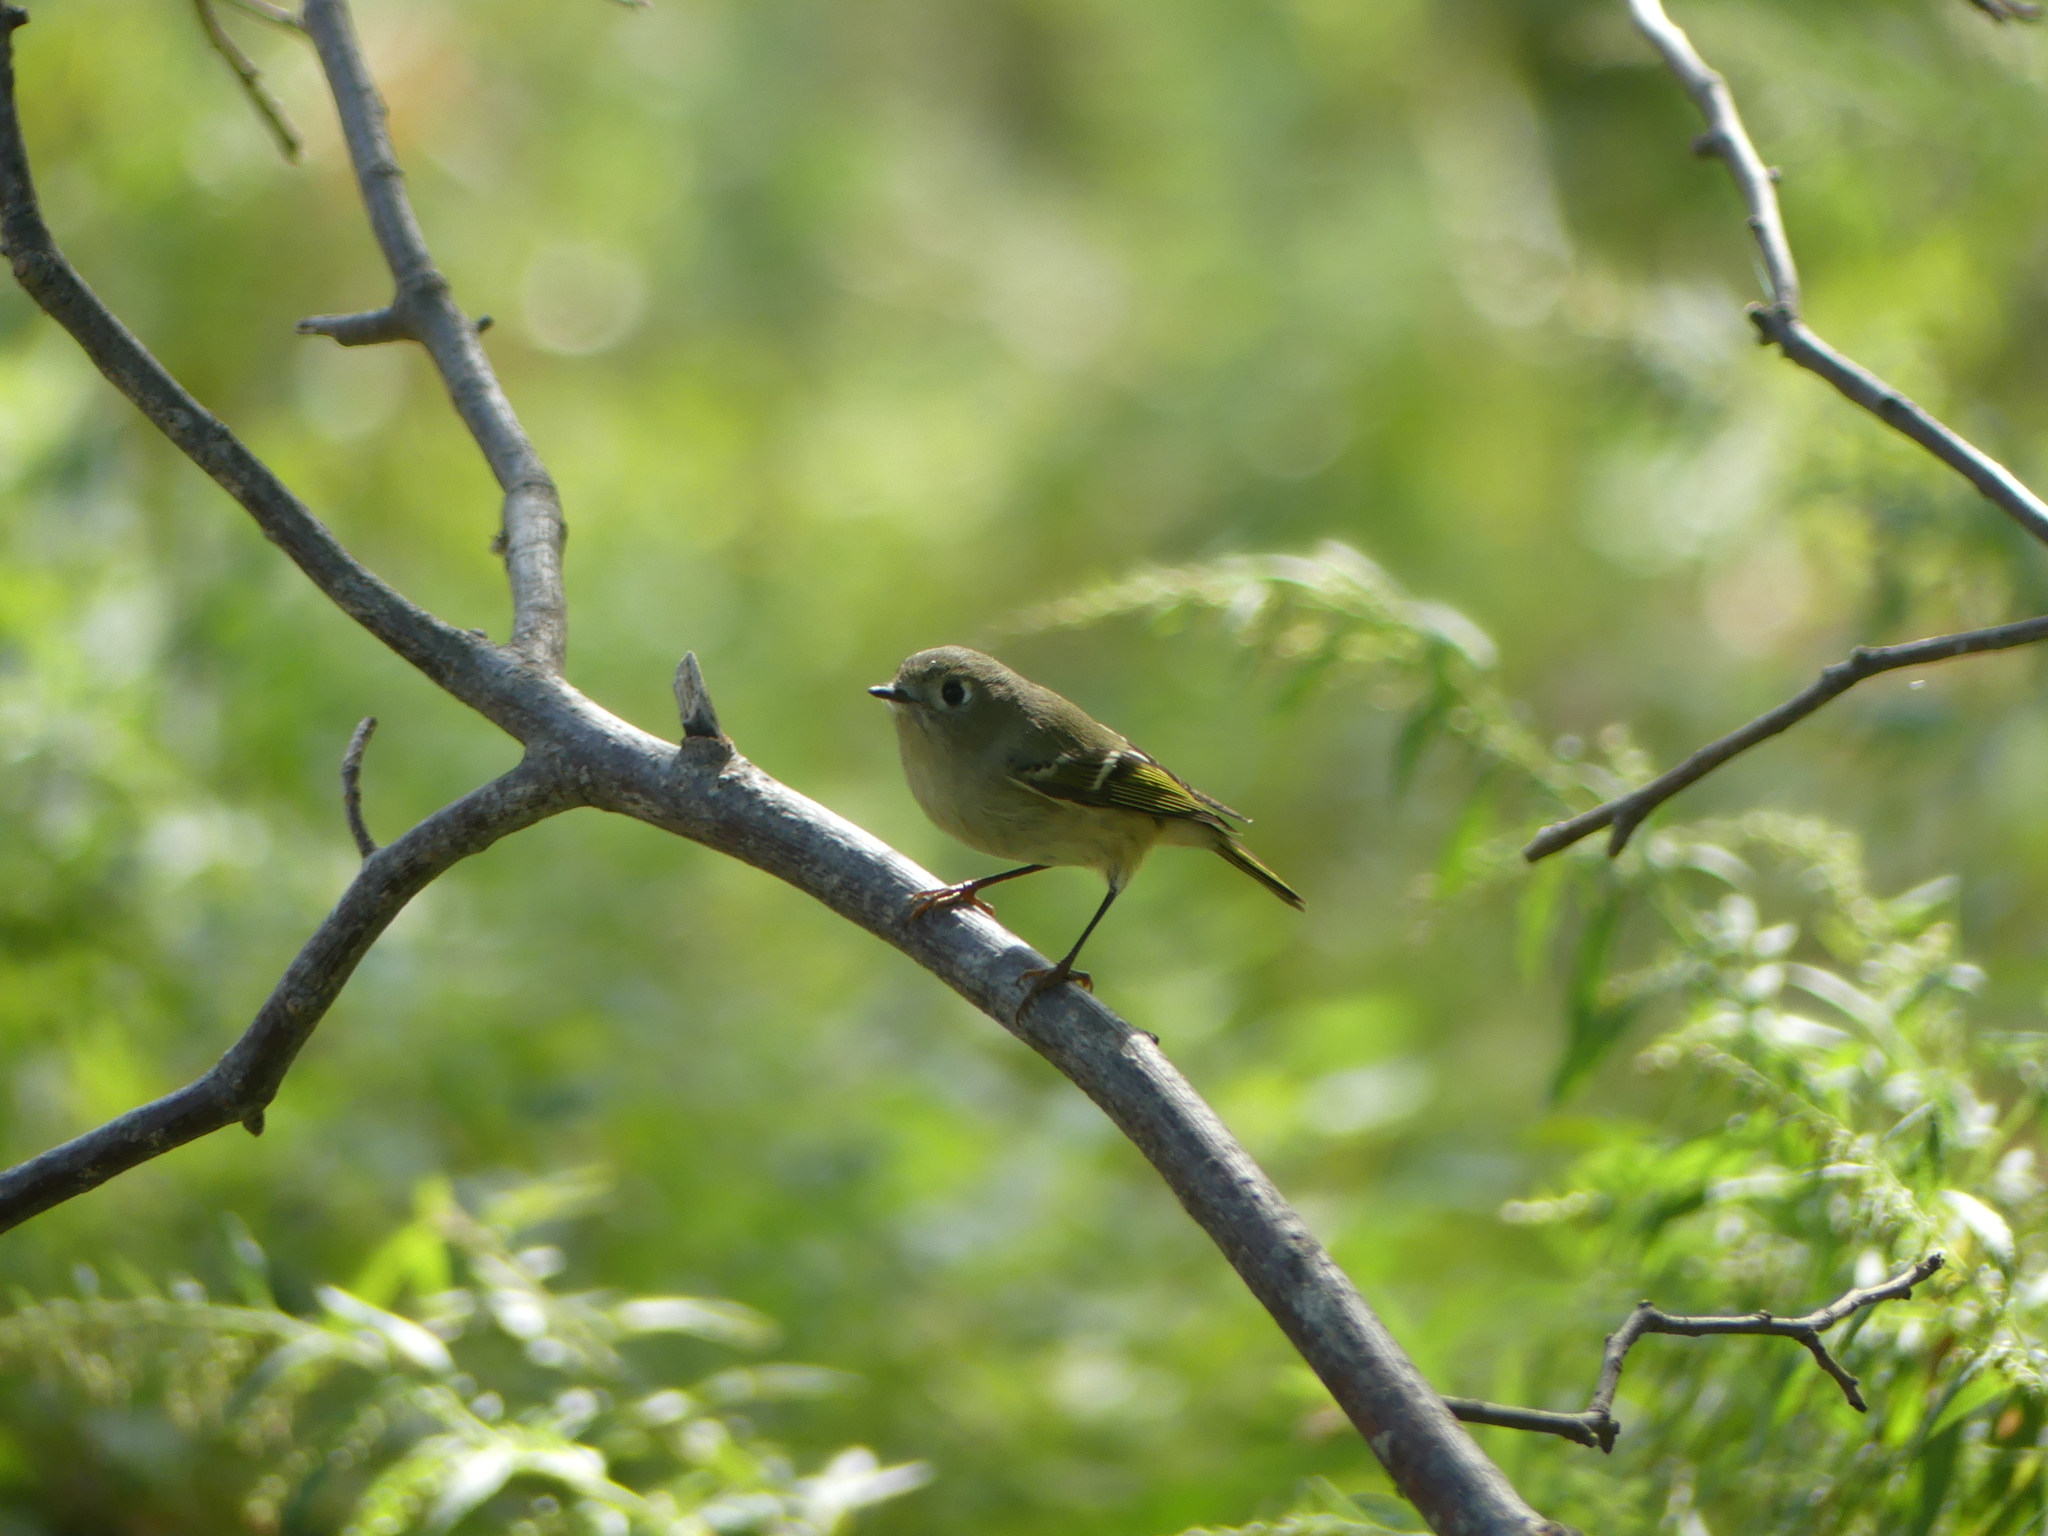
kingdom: Animalia
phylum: Chordata
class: Aves
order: Passeriformes
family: Regulidae
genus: Regulus
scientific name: Regulus calendula
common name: Ruby-crowned kinglet
